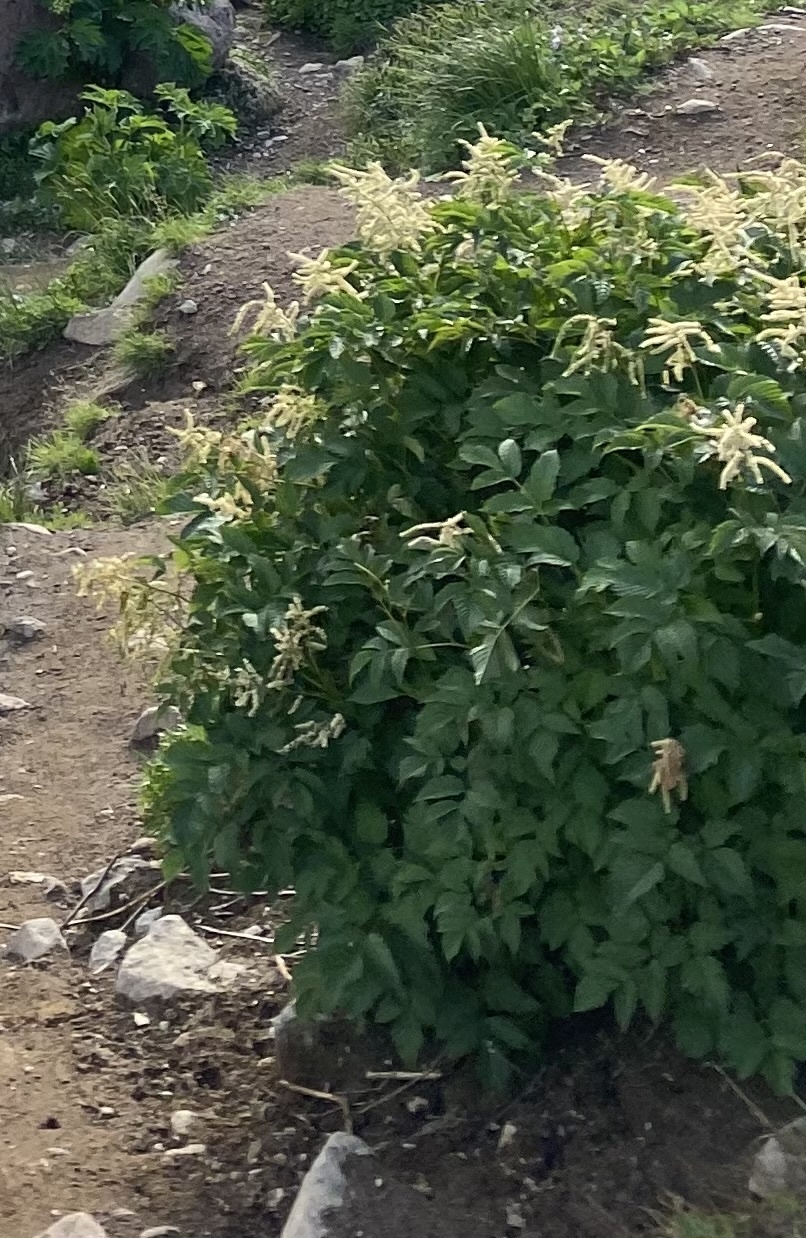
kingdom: Plantae
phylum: Tracheophyta
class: Magnoliopsida
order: Rosales
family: Rosaceae
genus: Aruncus
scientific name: Aruncus dioicus
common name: Buck's-beard
